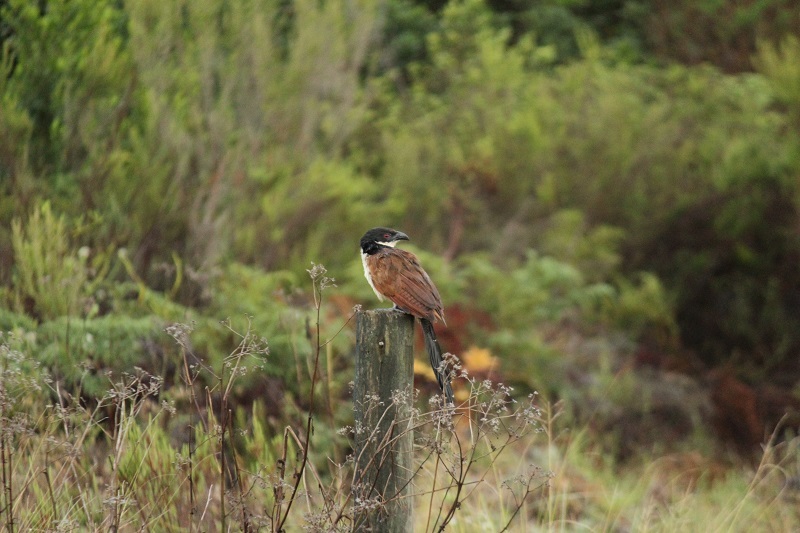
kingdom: Animalia
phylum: Chordata
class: Aves
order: Cuculiformes
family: Cuculidae
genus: Centropus
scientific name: Centropus superciliosus
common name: White-browed coucal
